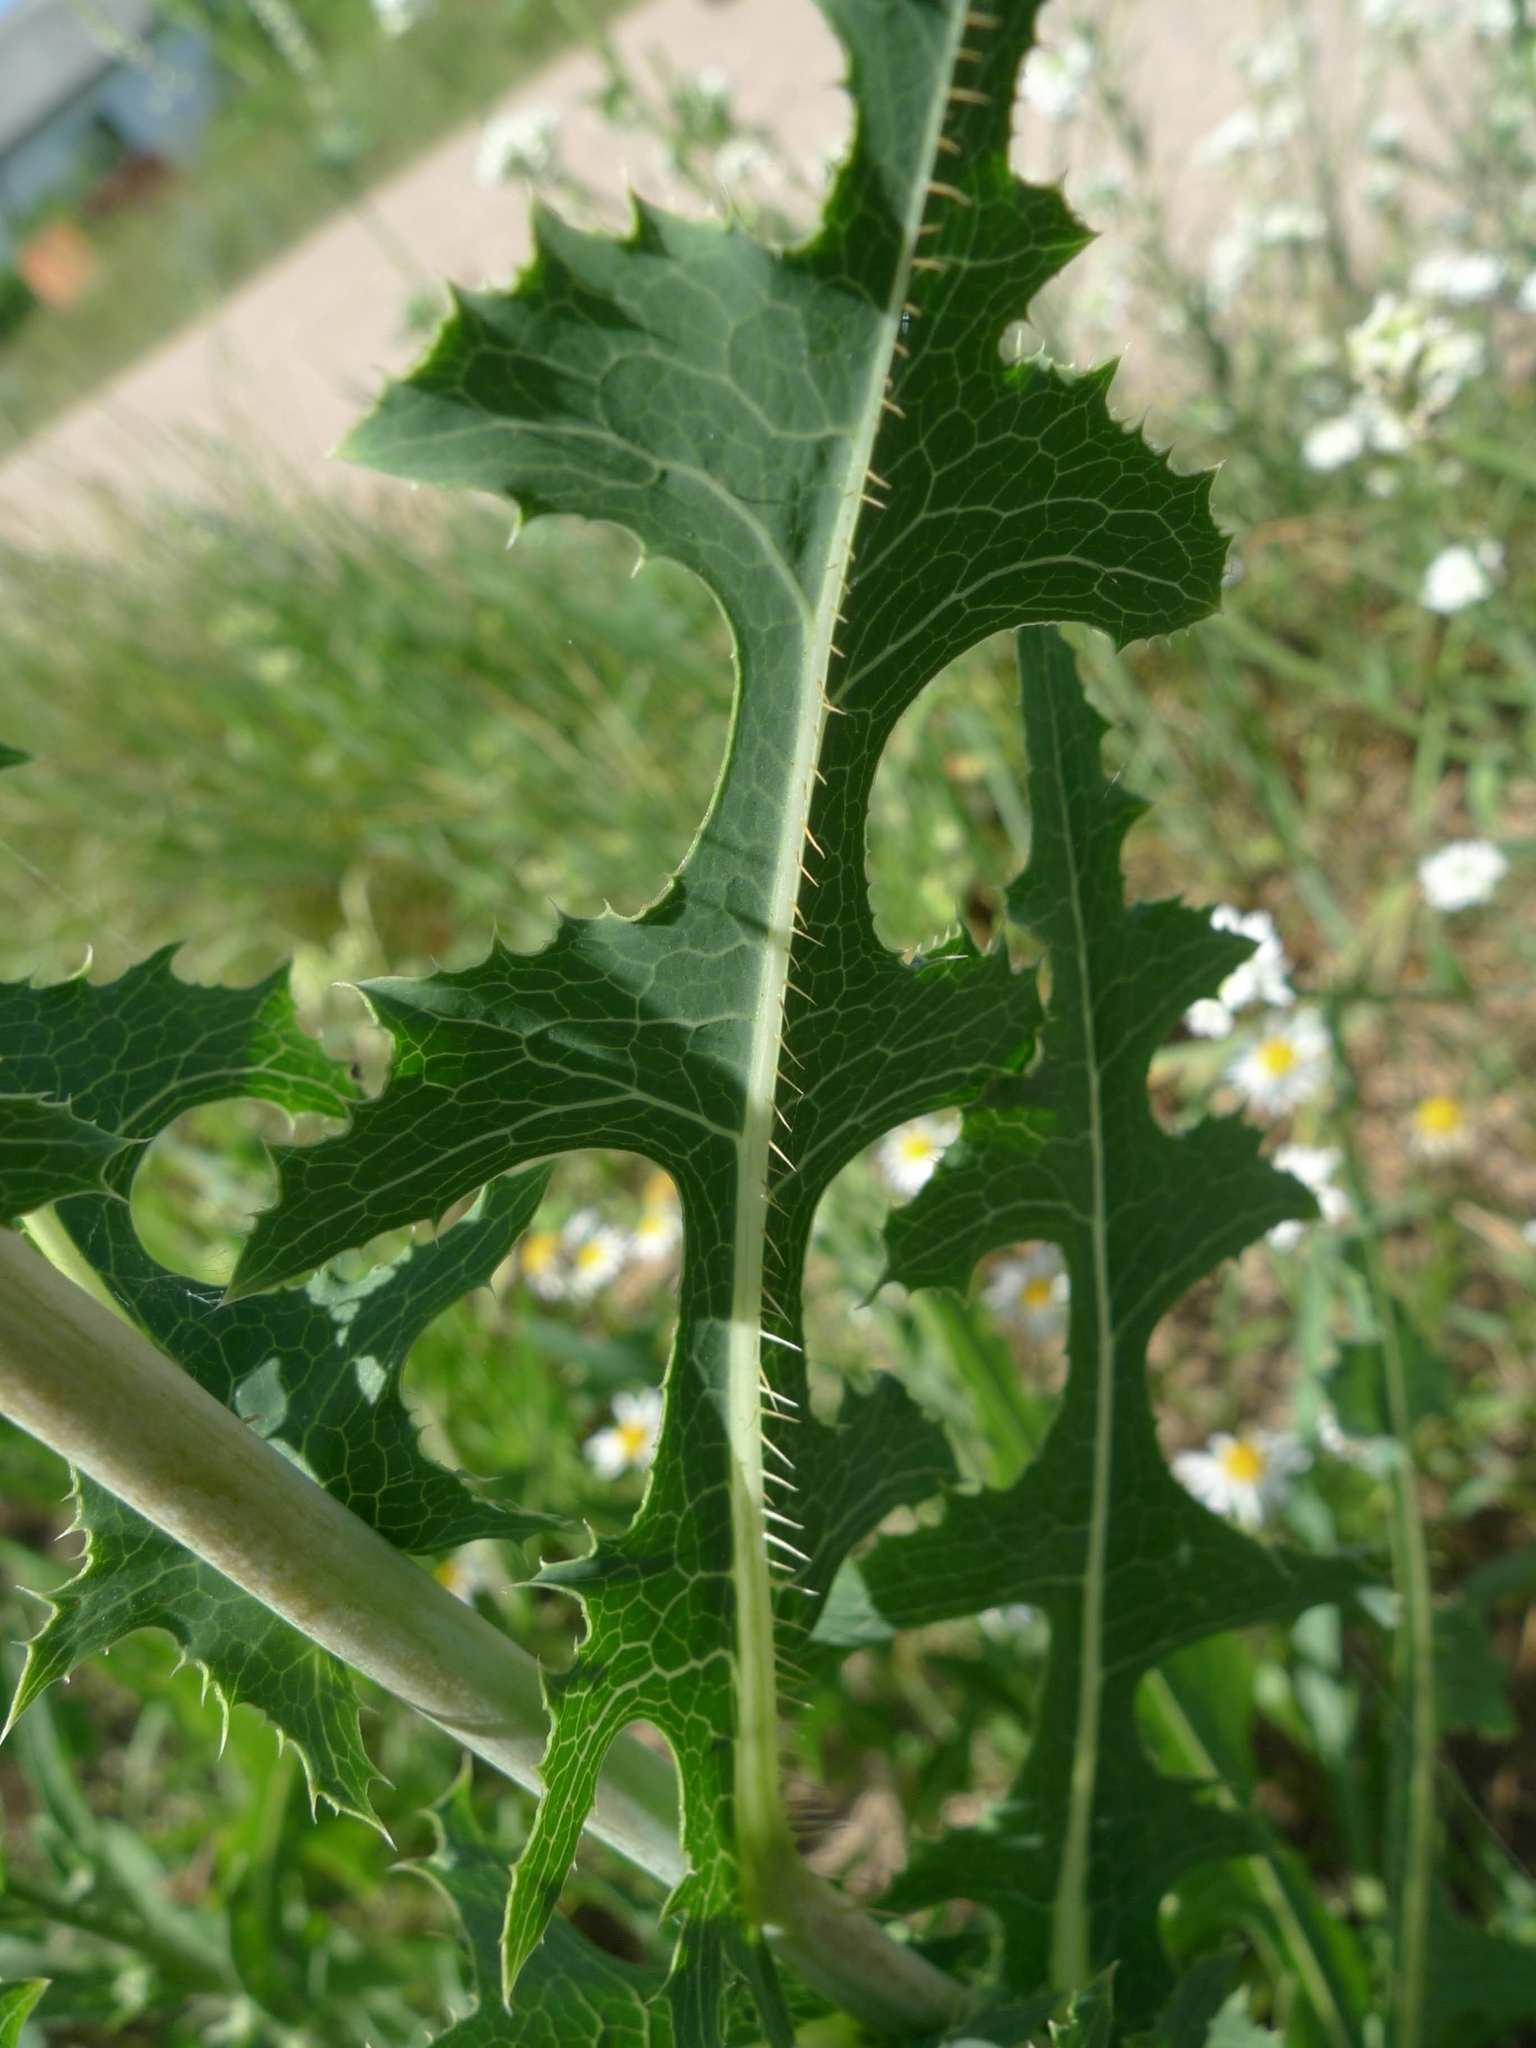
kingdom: Plantae
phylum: Tracheophyta
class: Magnoliopsida
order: Asterales
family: Asteraceae
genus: Lactuca
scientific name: Lactuca serriola
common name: Prickly lettuce
